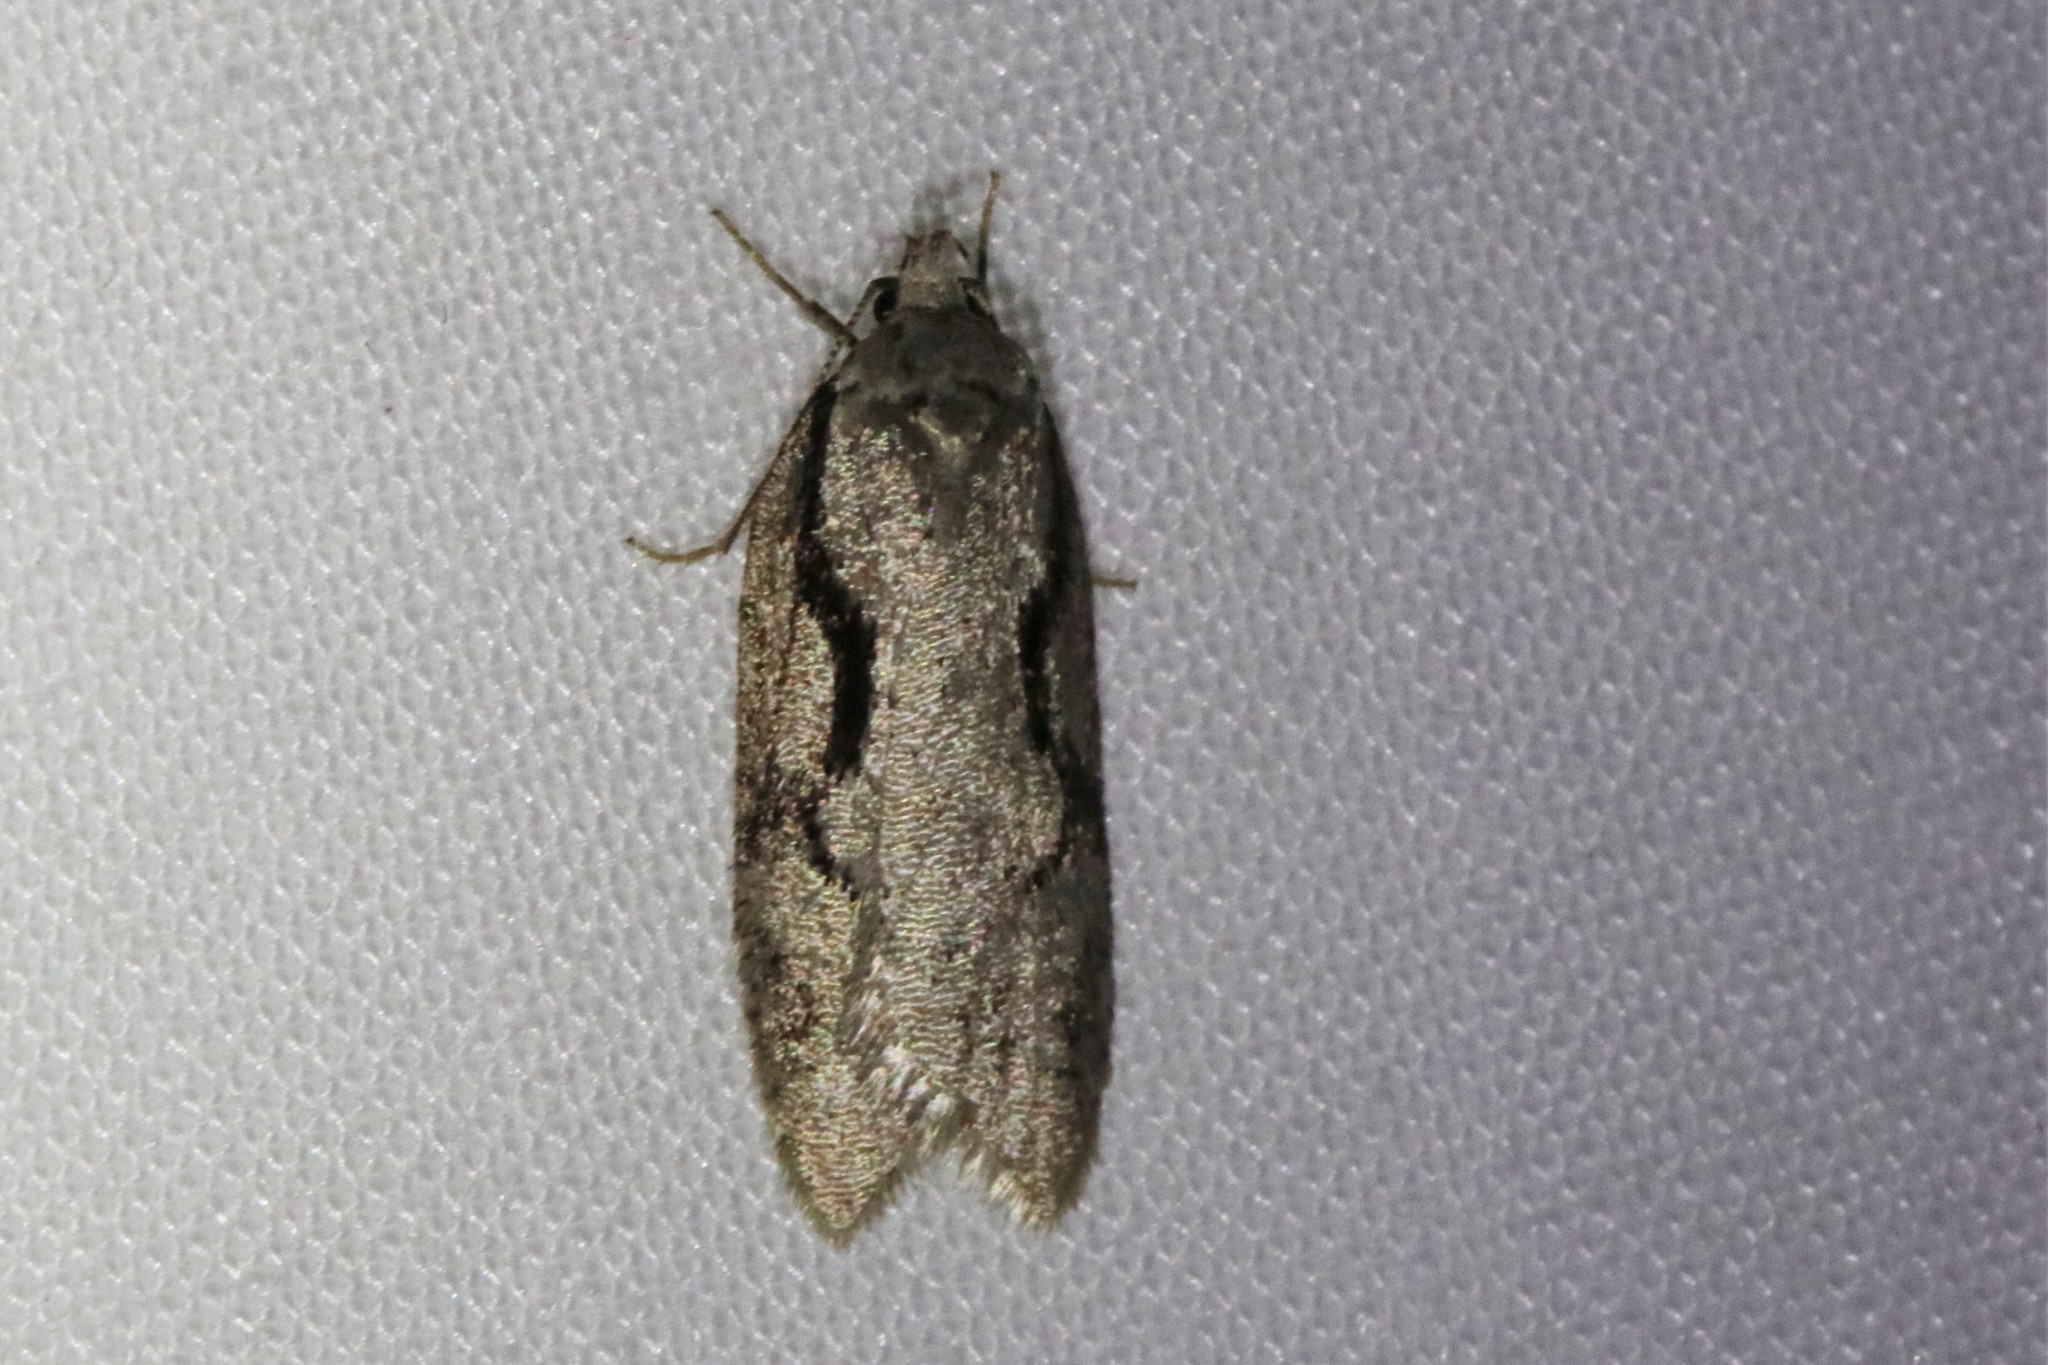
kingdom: Animalia
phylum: Arthropoda
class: Insecta
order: Lepidoptera
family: Depressariidae
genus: Semioscopis
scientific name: Semioscopis packardella
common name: Packard's concealer moth
